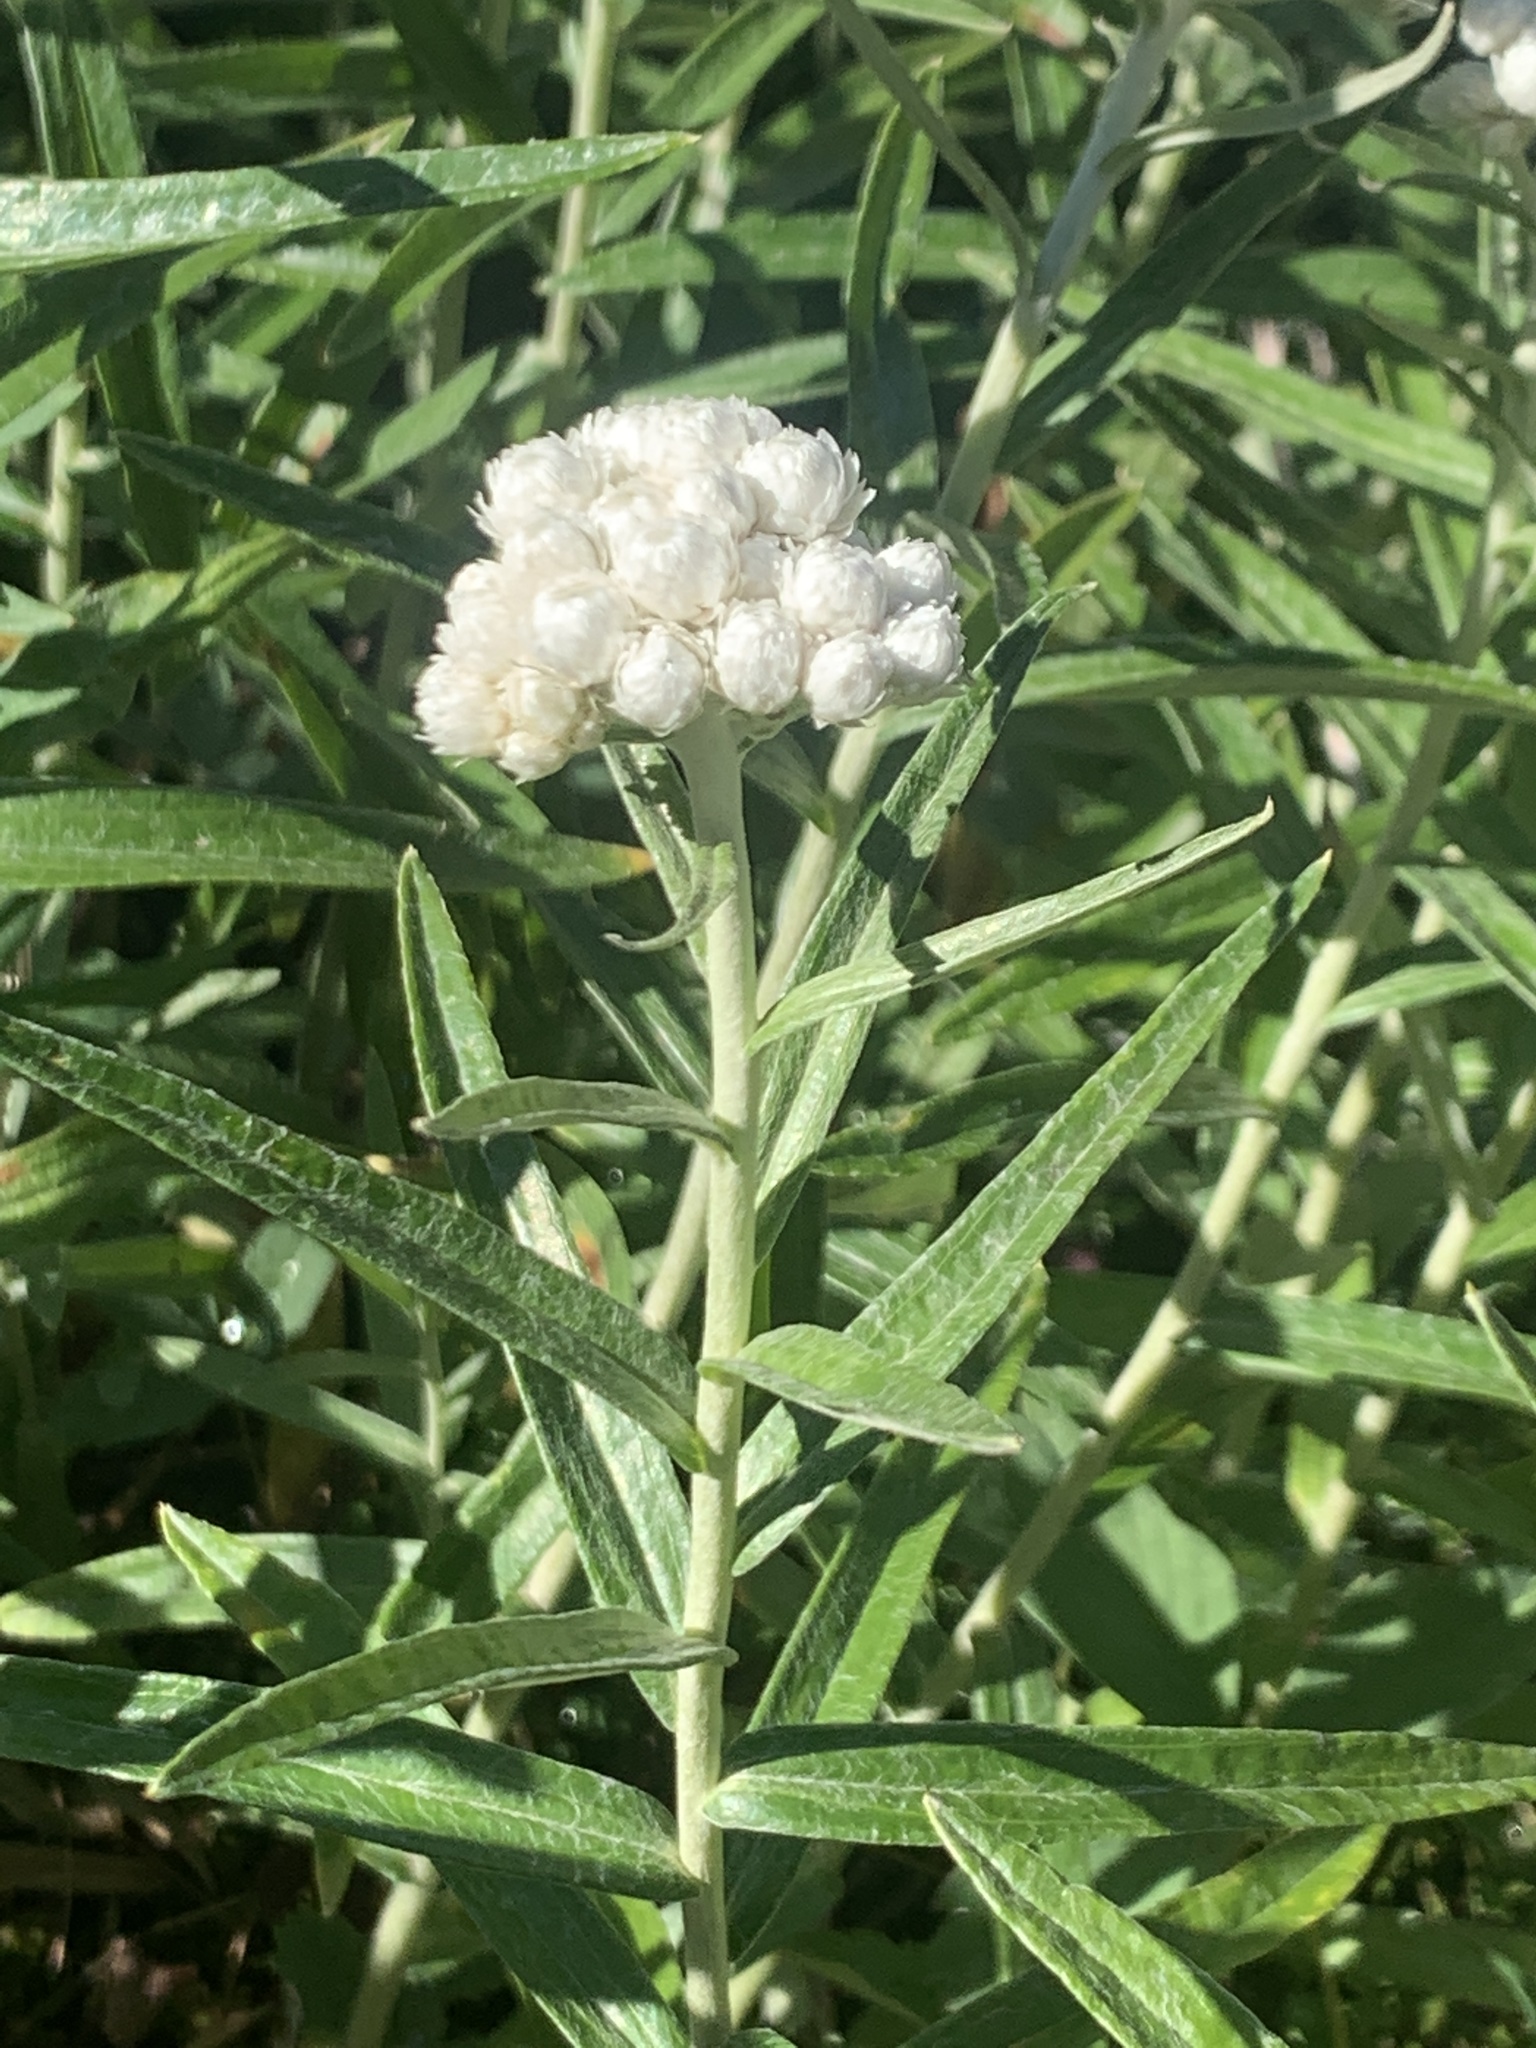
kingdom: Plantae
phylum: Tracheophyta
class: Magnoliopsida
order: Asterales
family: Asteraceae
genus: Anaphalis
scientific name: Anaphalis margaritacea
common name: Pearly everlasting
